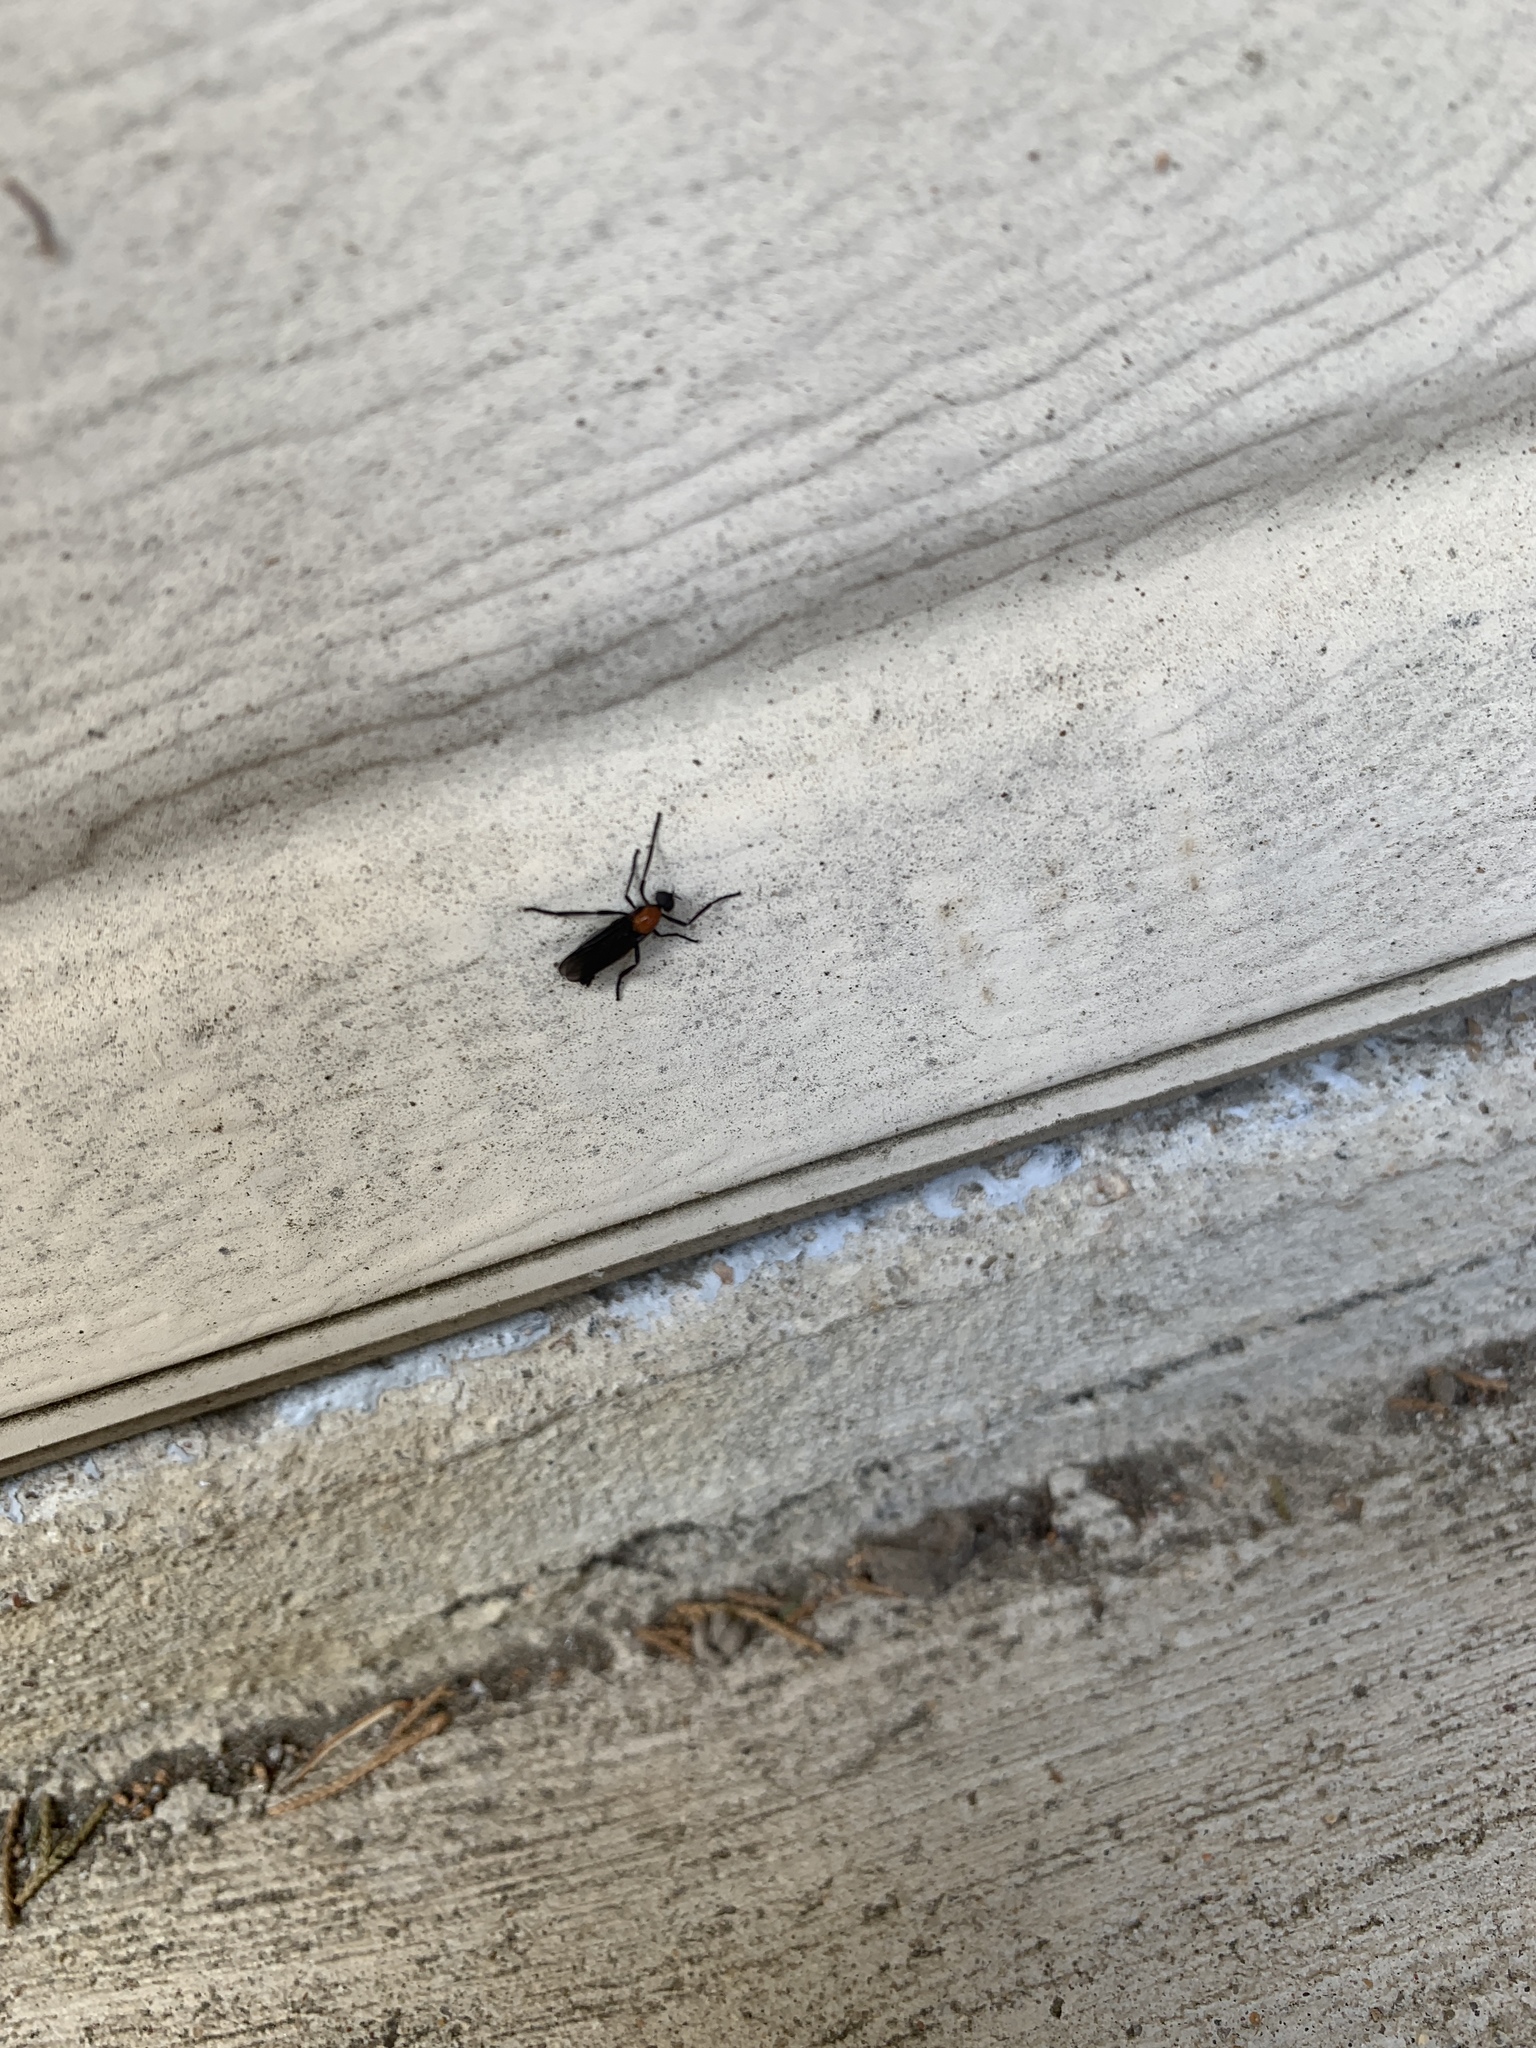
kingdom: Animalia
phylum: Arthropoda
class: Insecta
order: Diptera
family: Bibionidae
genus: Plecia
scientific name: Plecia nearctica
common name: March fly
